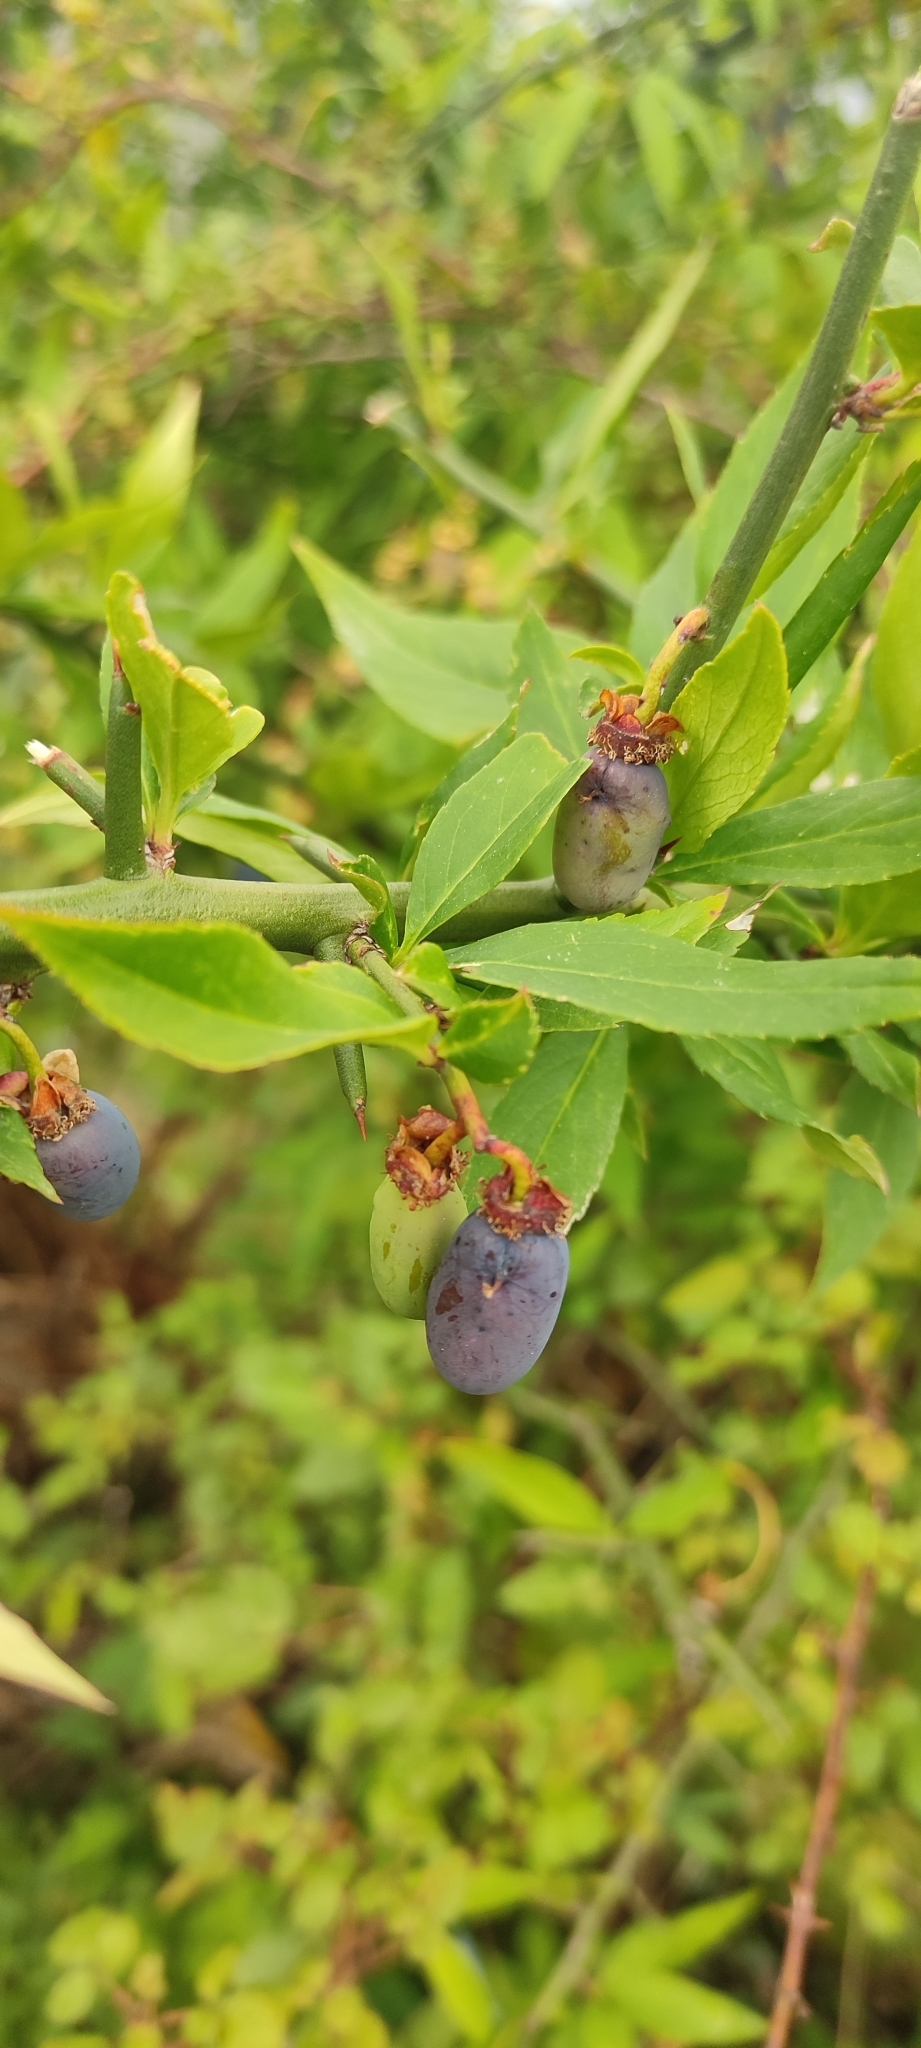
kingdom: Plantae
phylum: Tracheophyta
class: Magnoliopsida
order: Rosales
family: Rosaceae
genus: Prinsepia
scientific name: Prinsepia utilis
